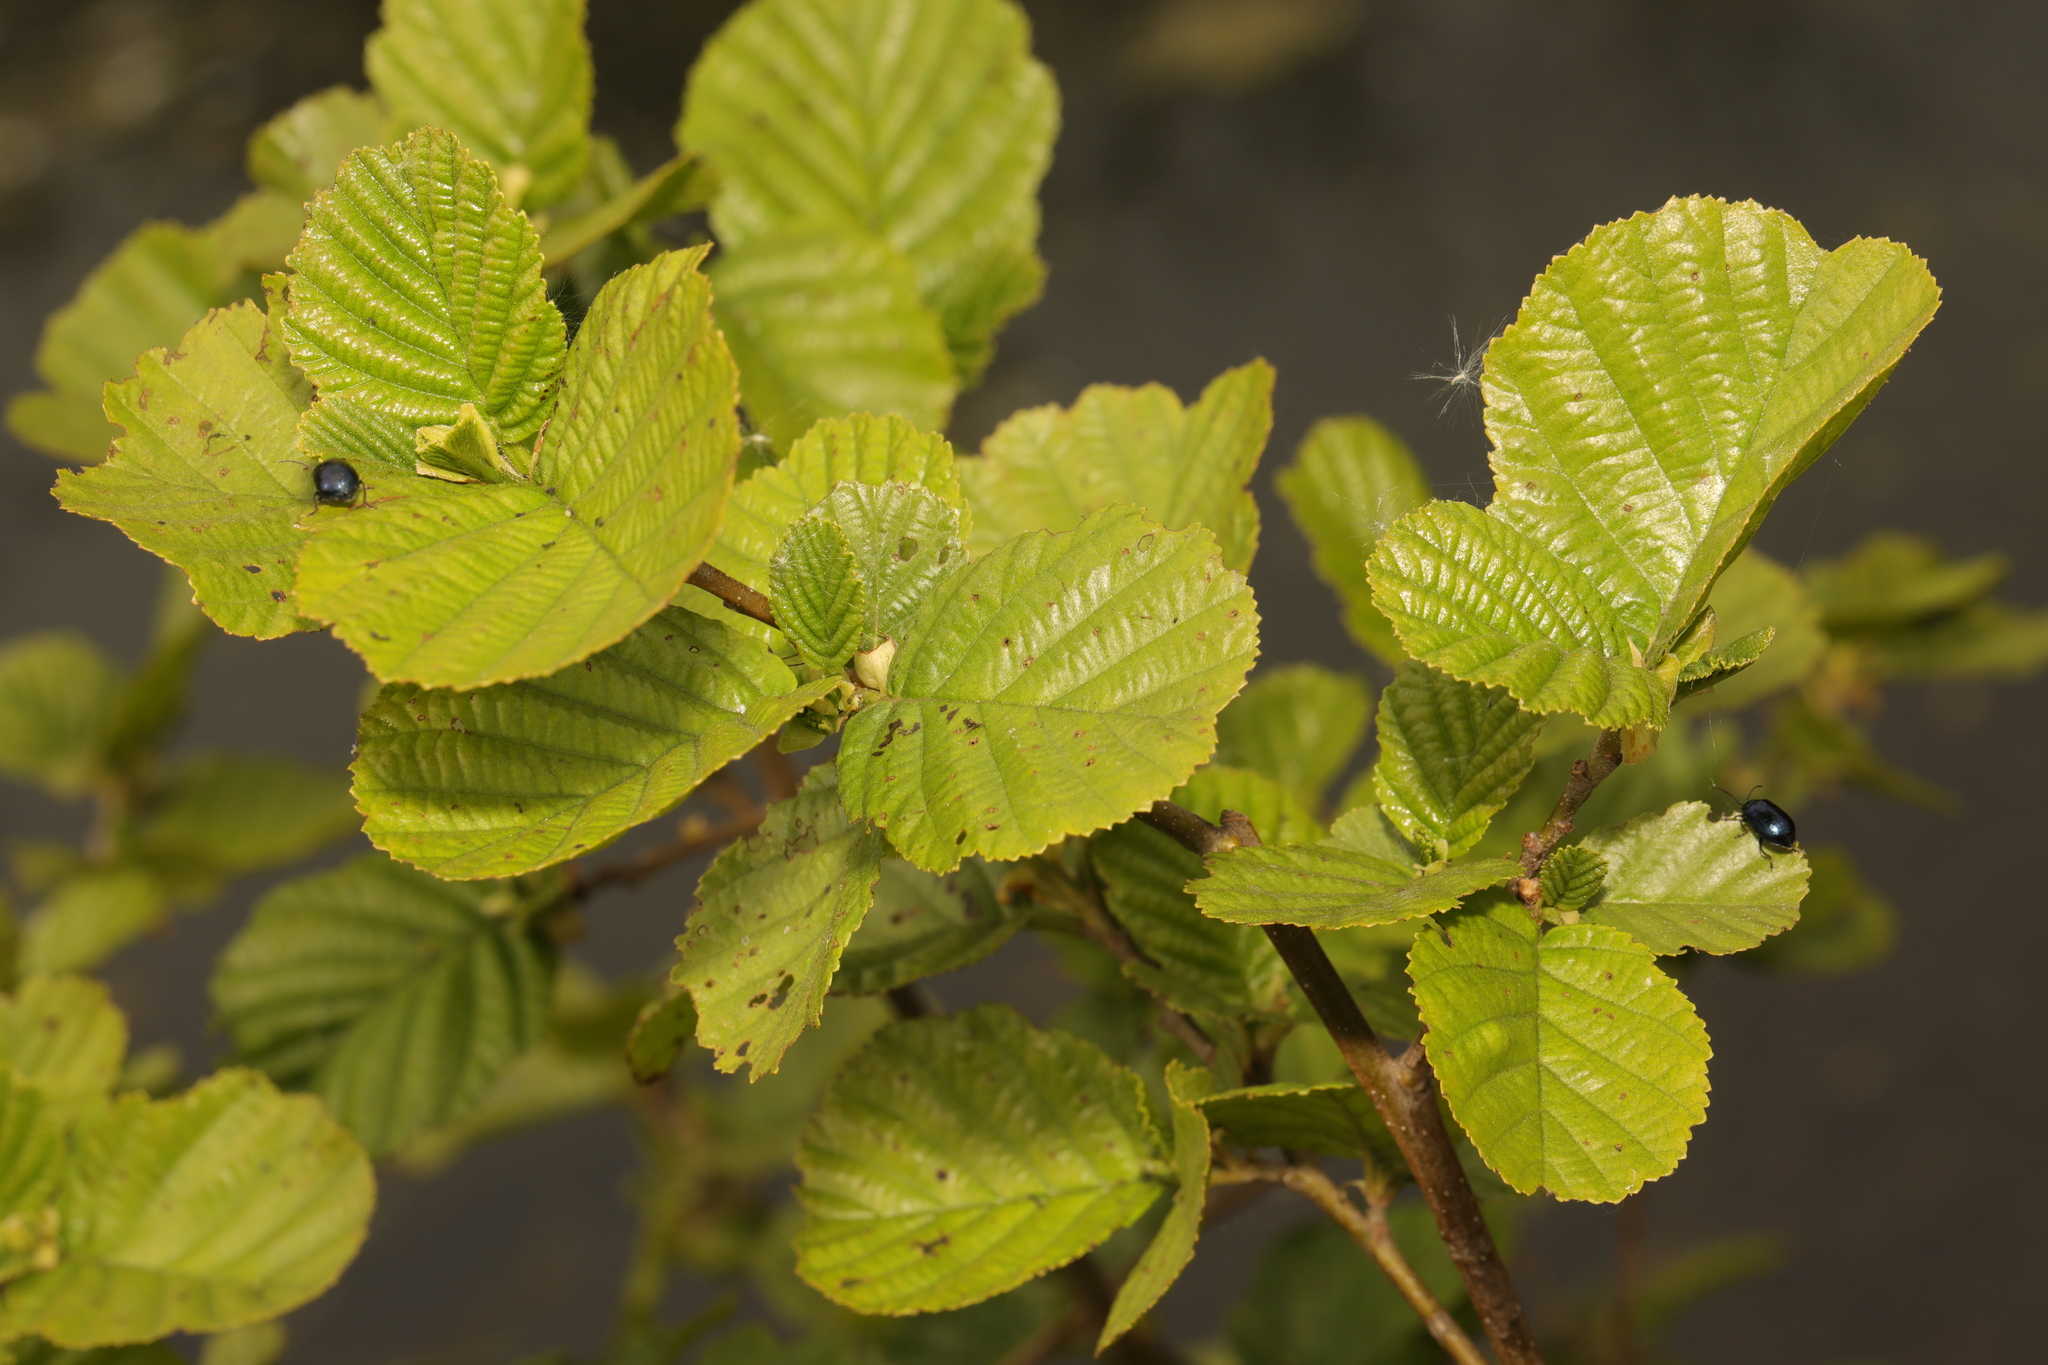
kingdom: Plantae
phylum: Tracheophyta
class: Magnoliopsida
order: Fagales
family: Betulaceae
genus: Alnus
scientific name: Alnus glutinosa
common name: Black alder
